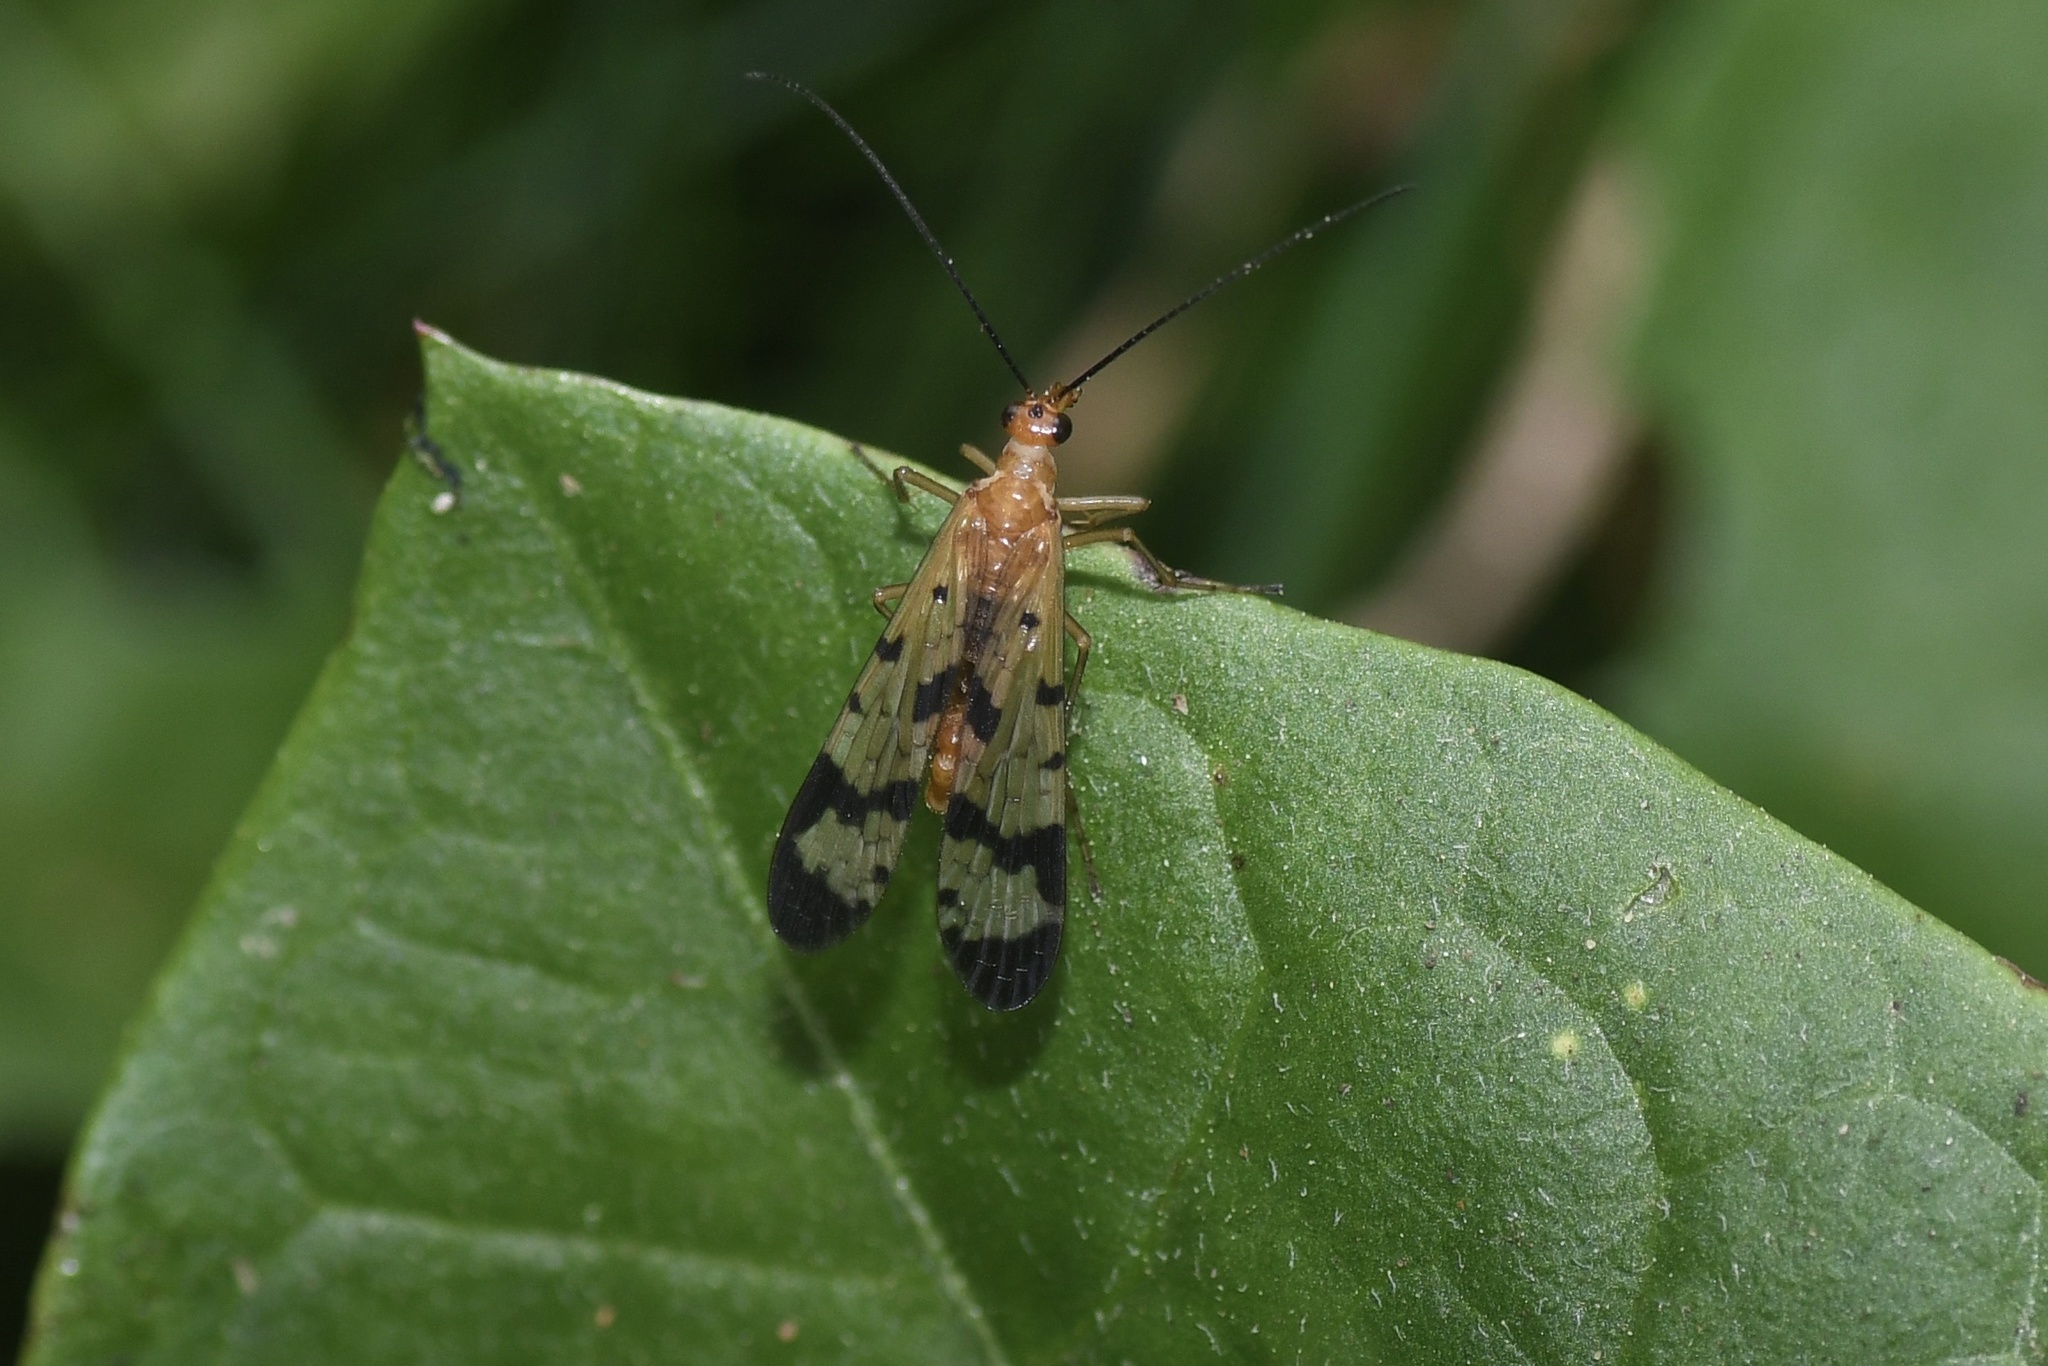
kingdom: Animalia
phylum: Arthropoda
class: Insecta
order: Mecoptera
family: Panorpidae
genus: Panorpa
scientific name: Panorpa helena
